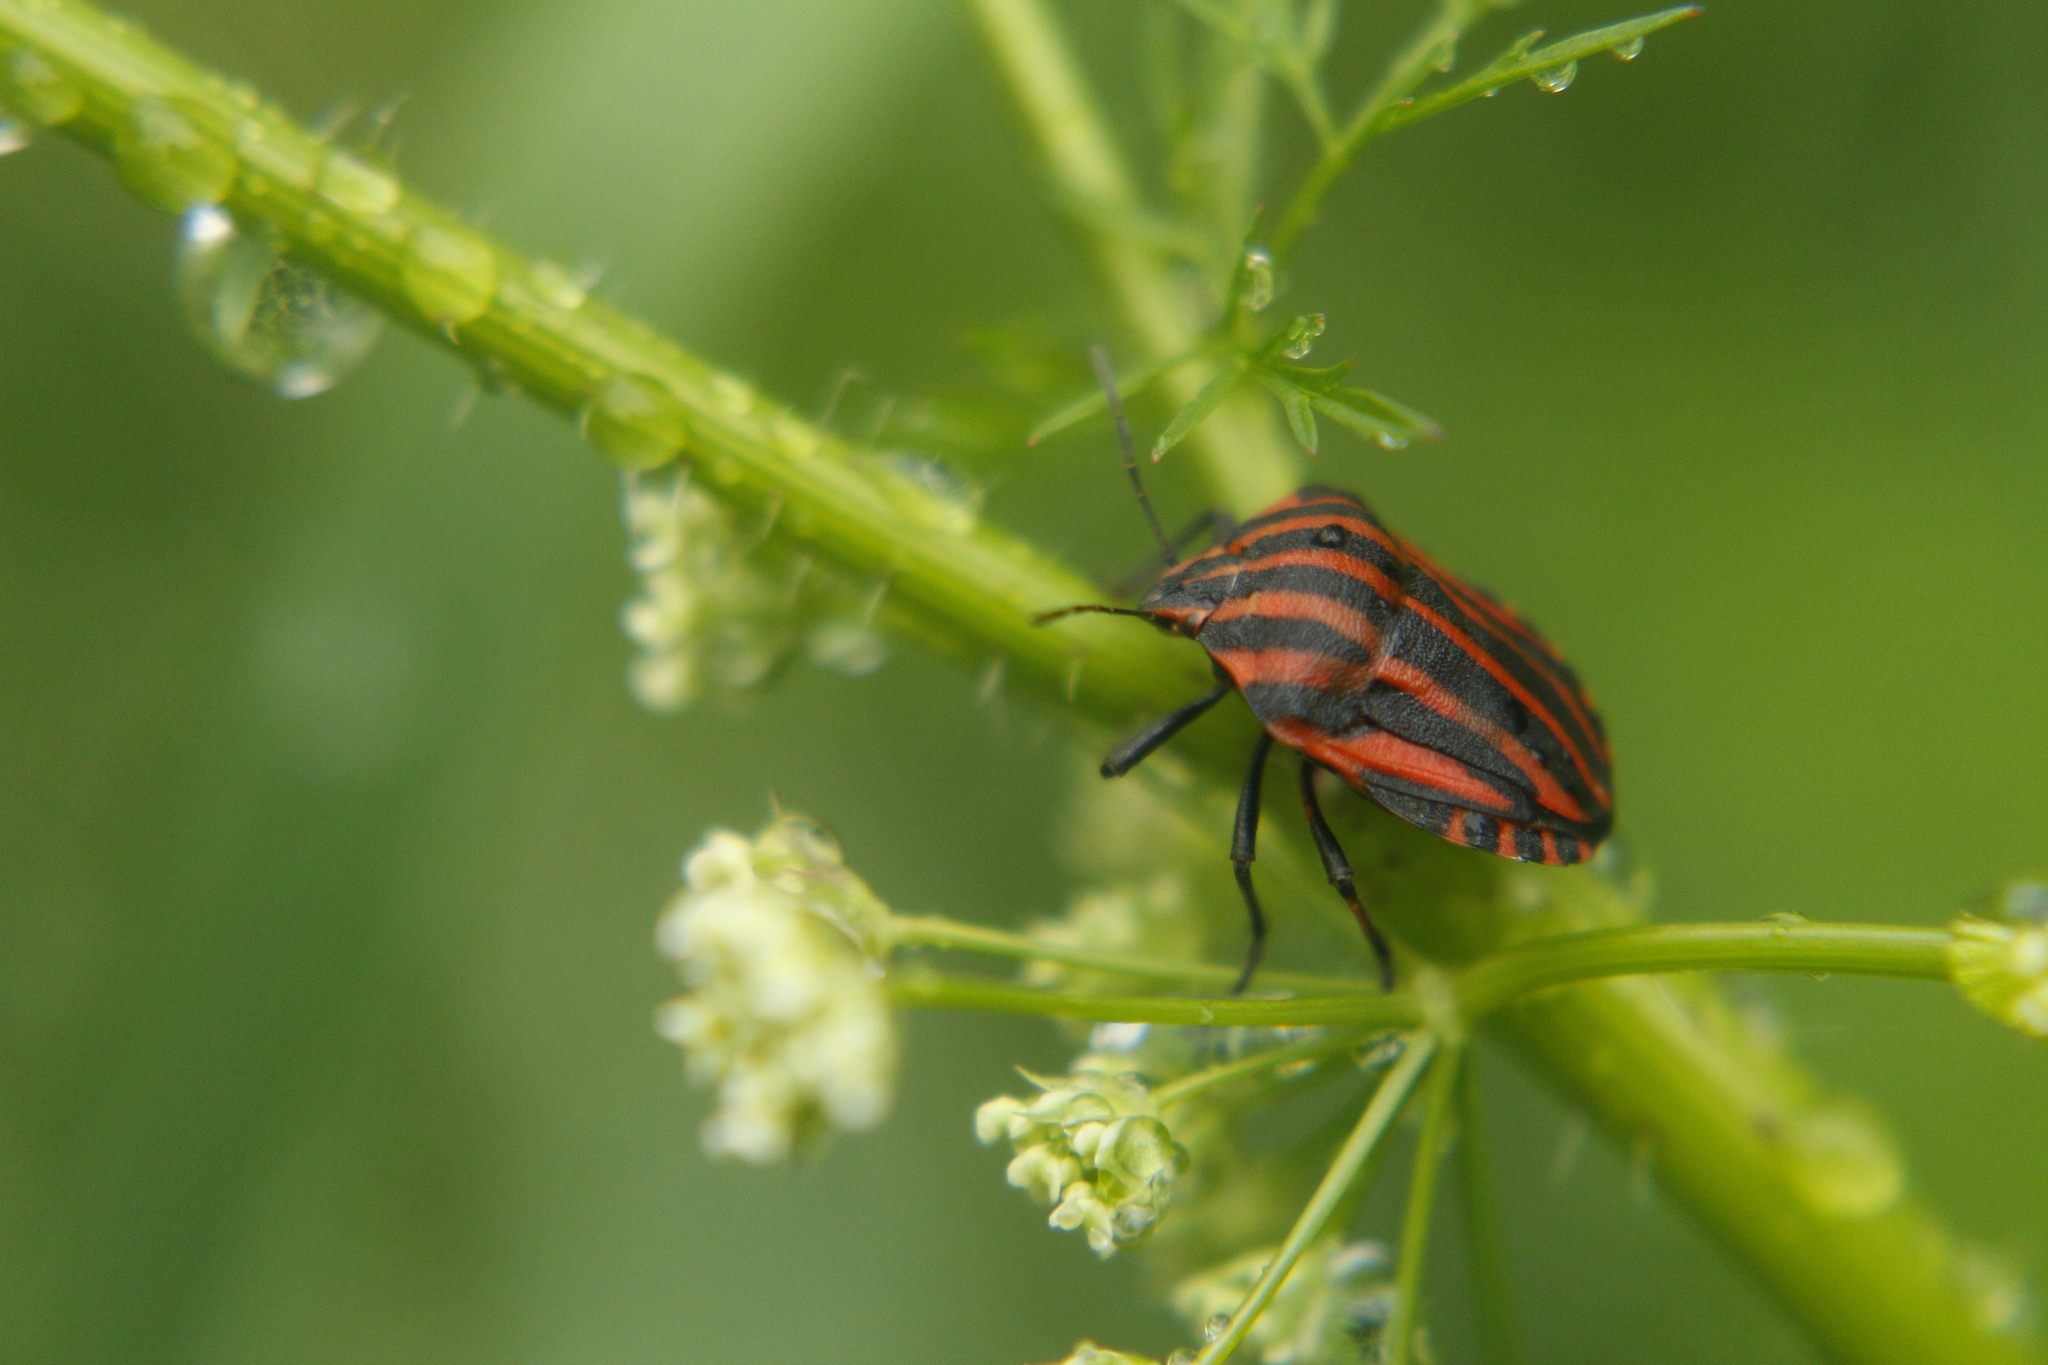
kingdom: Animalia
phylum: Arthropoda
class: Insecta
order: Hemiptera
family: Pentatomidae
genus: Graphosoma
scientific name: Graphosoma italicum
